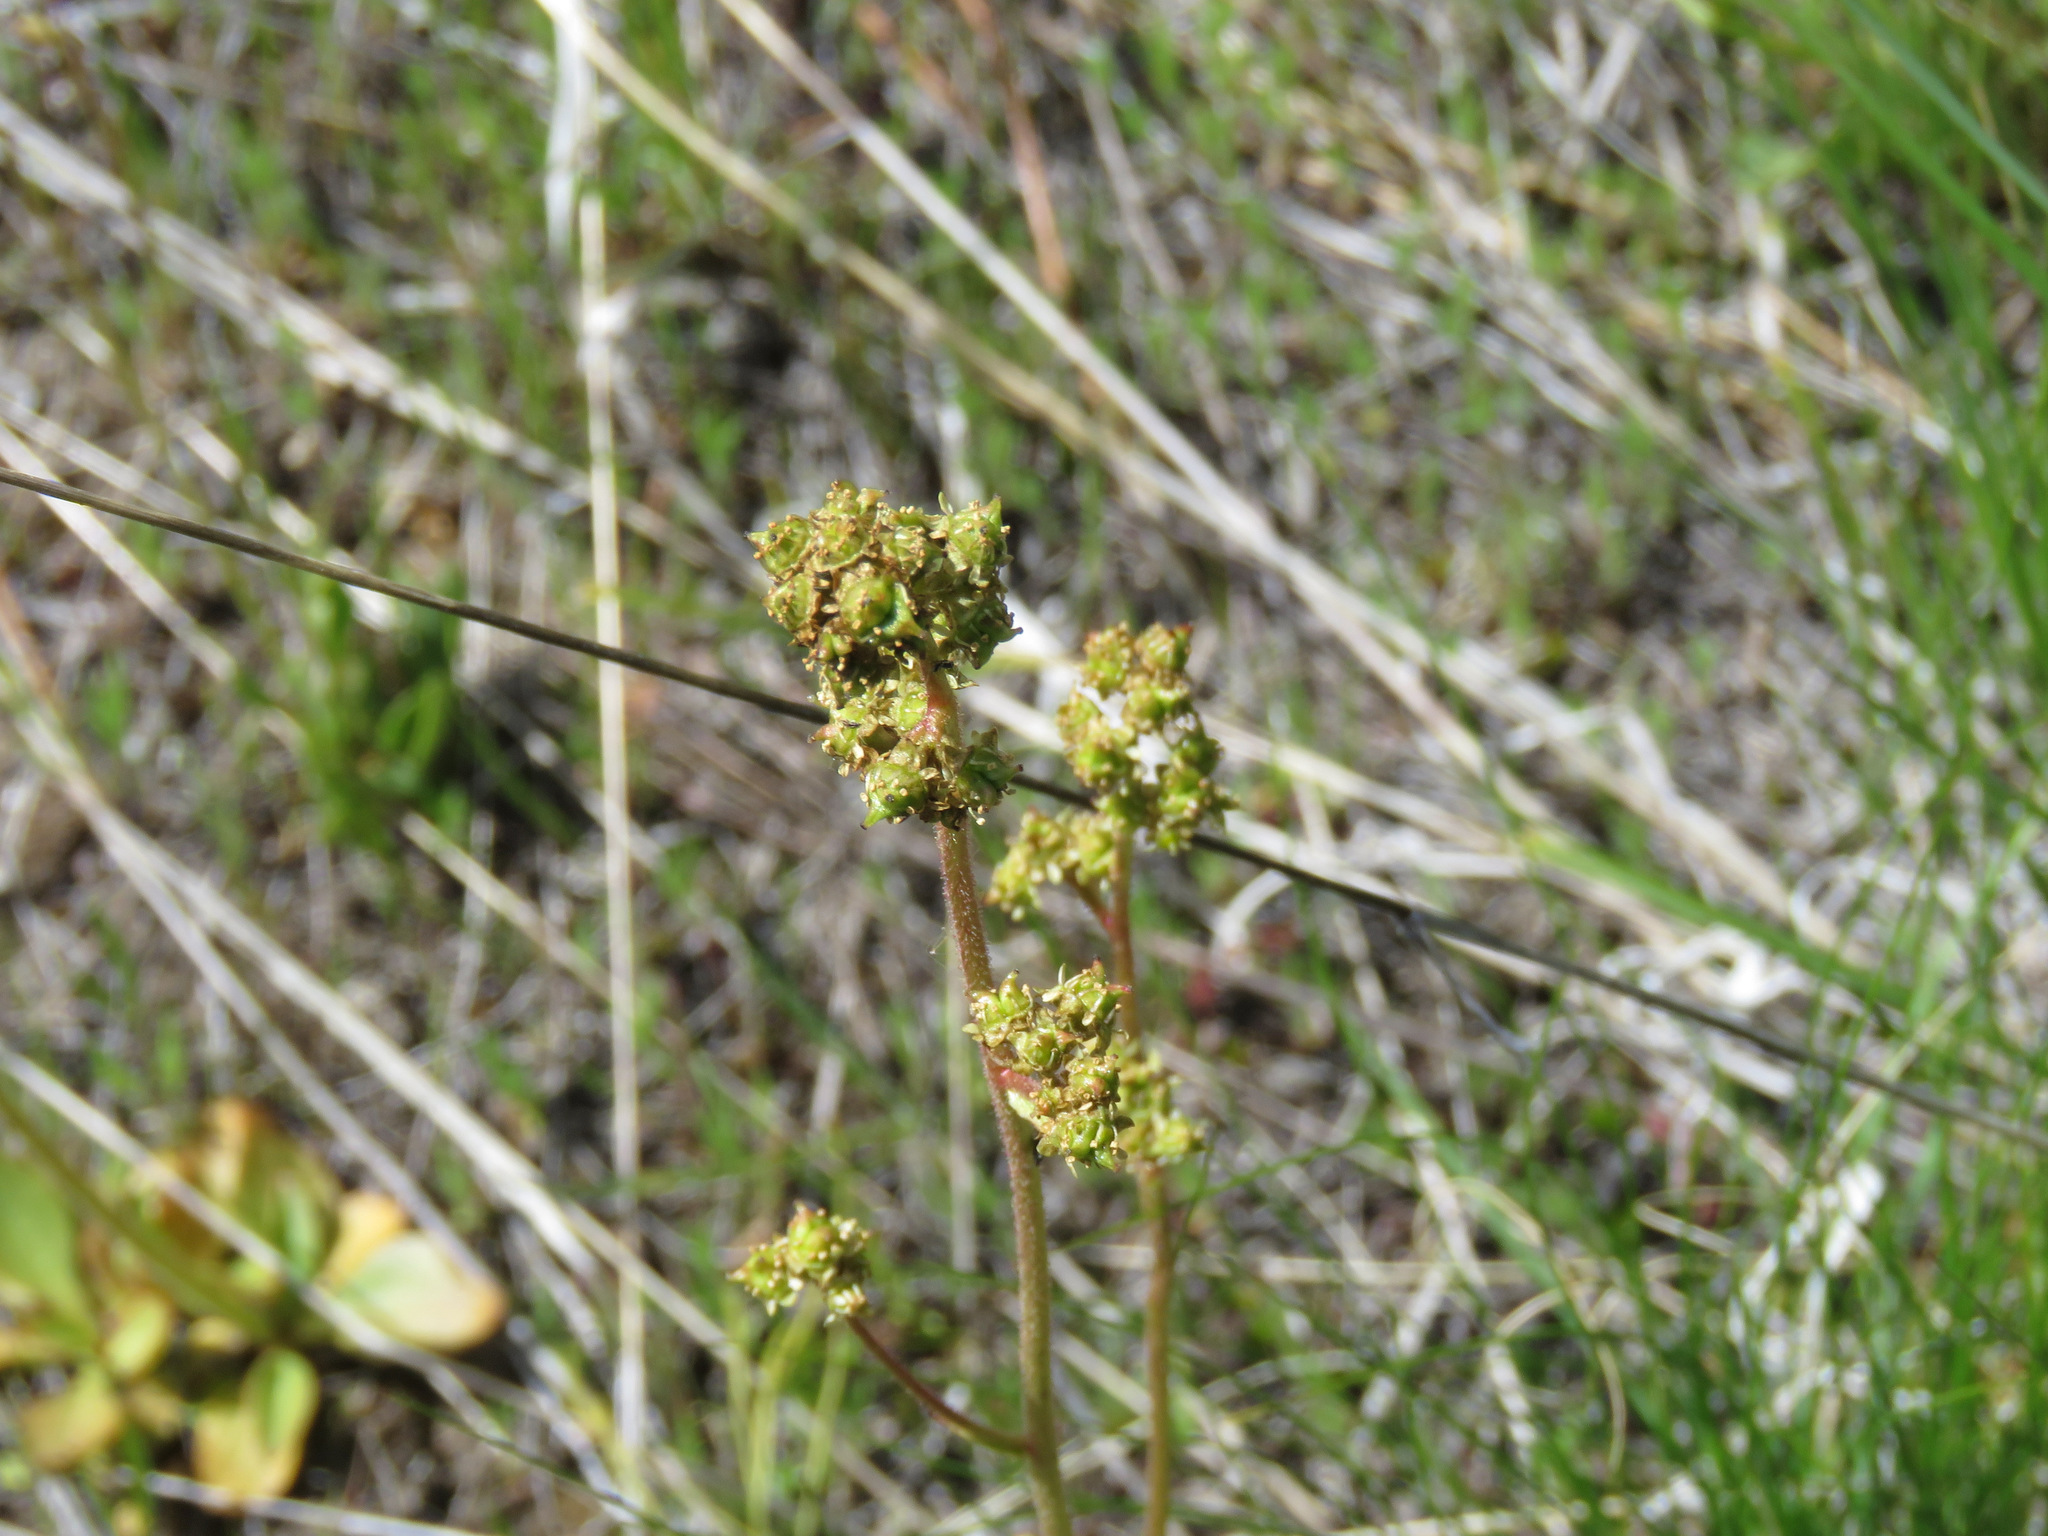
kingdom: Plantae
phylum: Tracheophyta
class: Magnoliopsida
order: Saxifragales
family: Saxifragaceae
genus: Micranthes
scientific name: Micranthes nidifica
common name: Peak saxifrage
